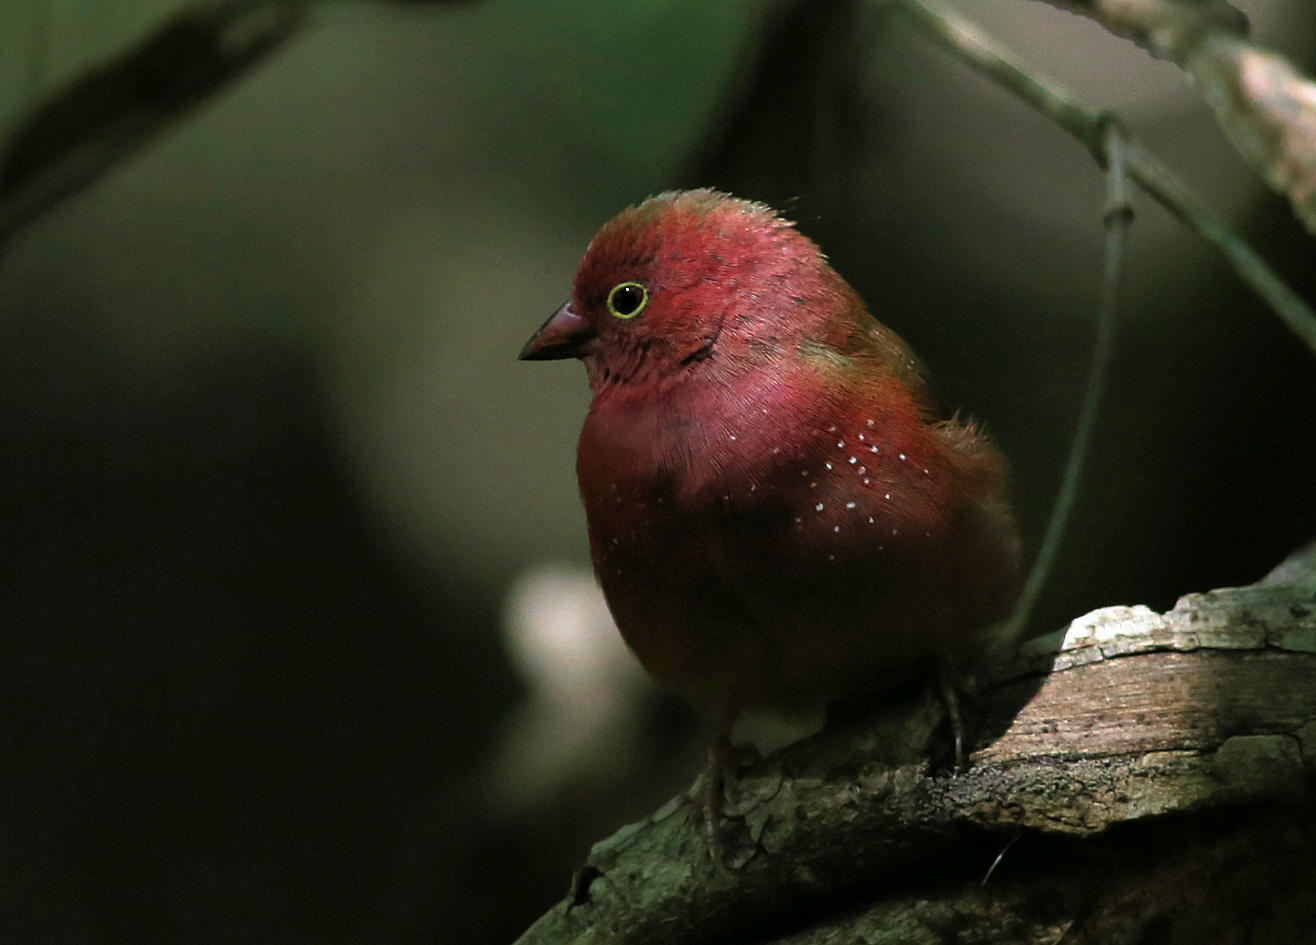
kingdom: Animalia
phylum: Chordata
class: Aves
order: Passeriformes
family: Estrildidae
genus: Lagonosticta
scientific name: Lagonosticta senegala
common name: Red-billed firefinch
